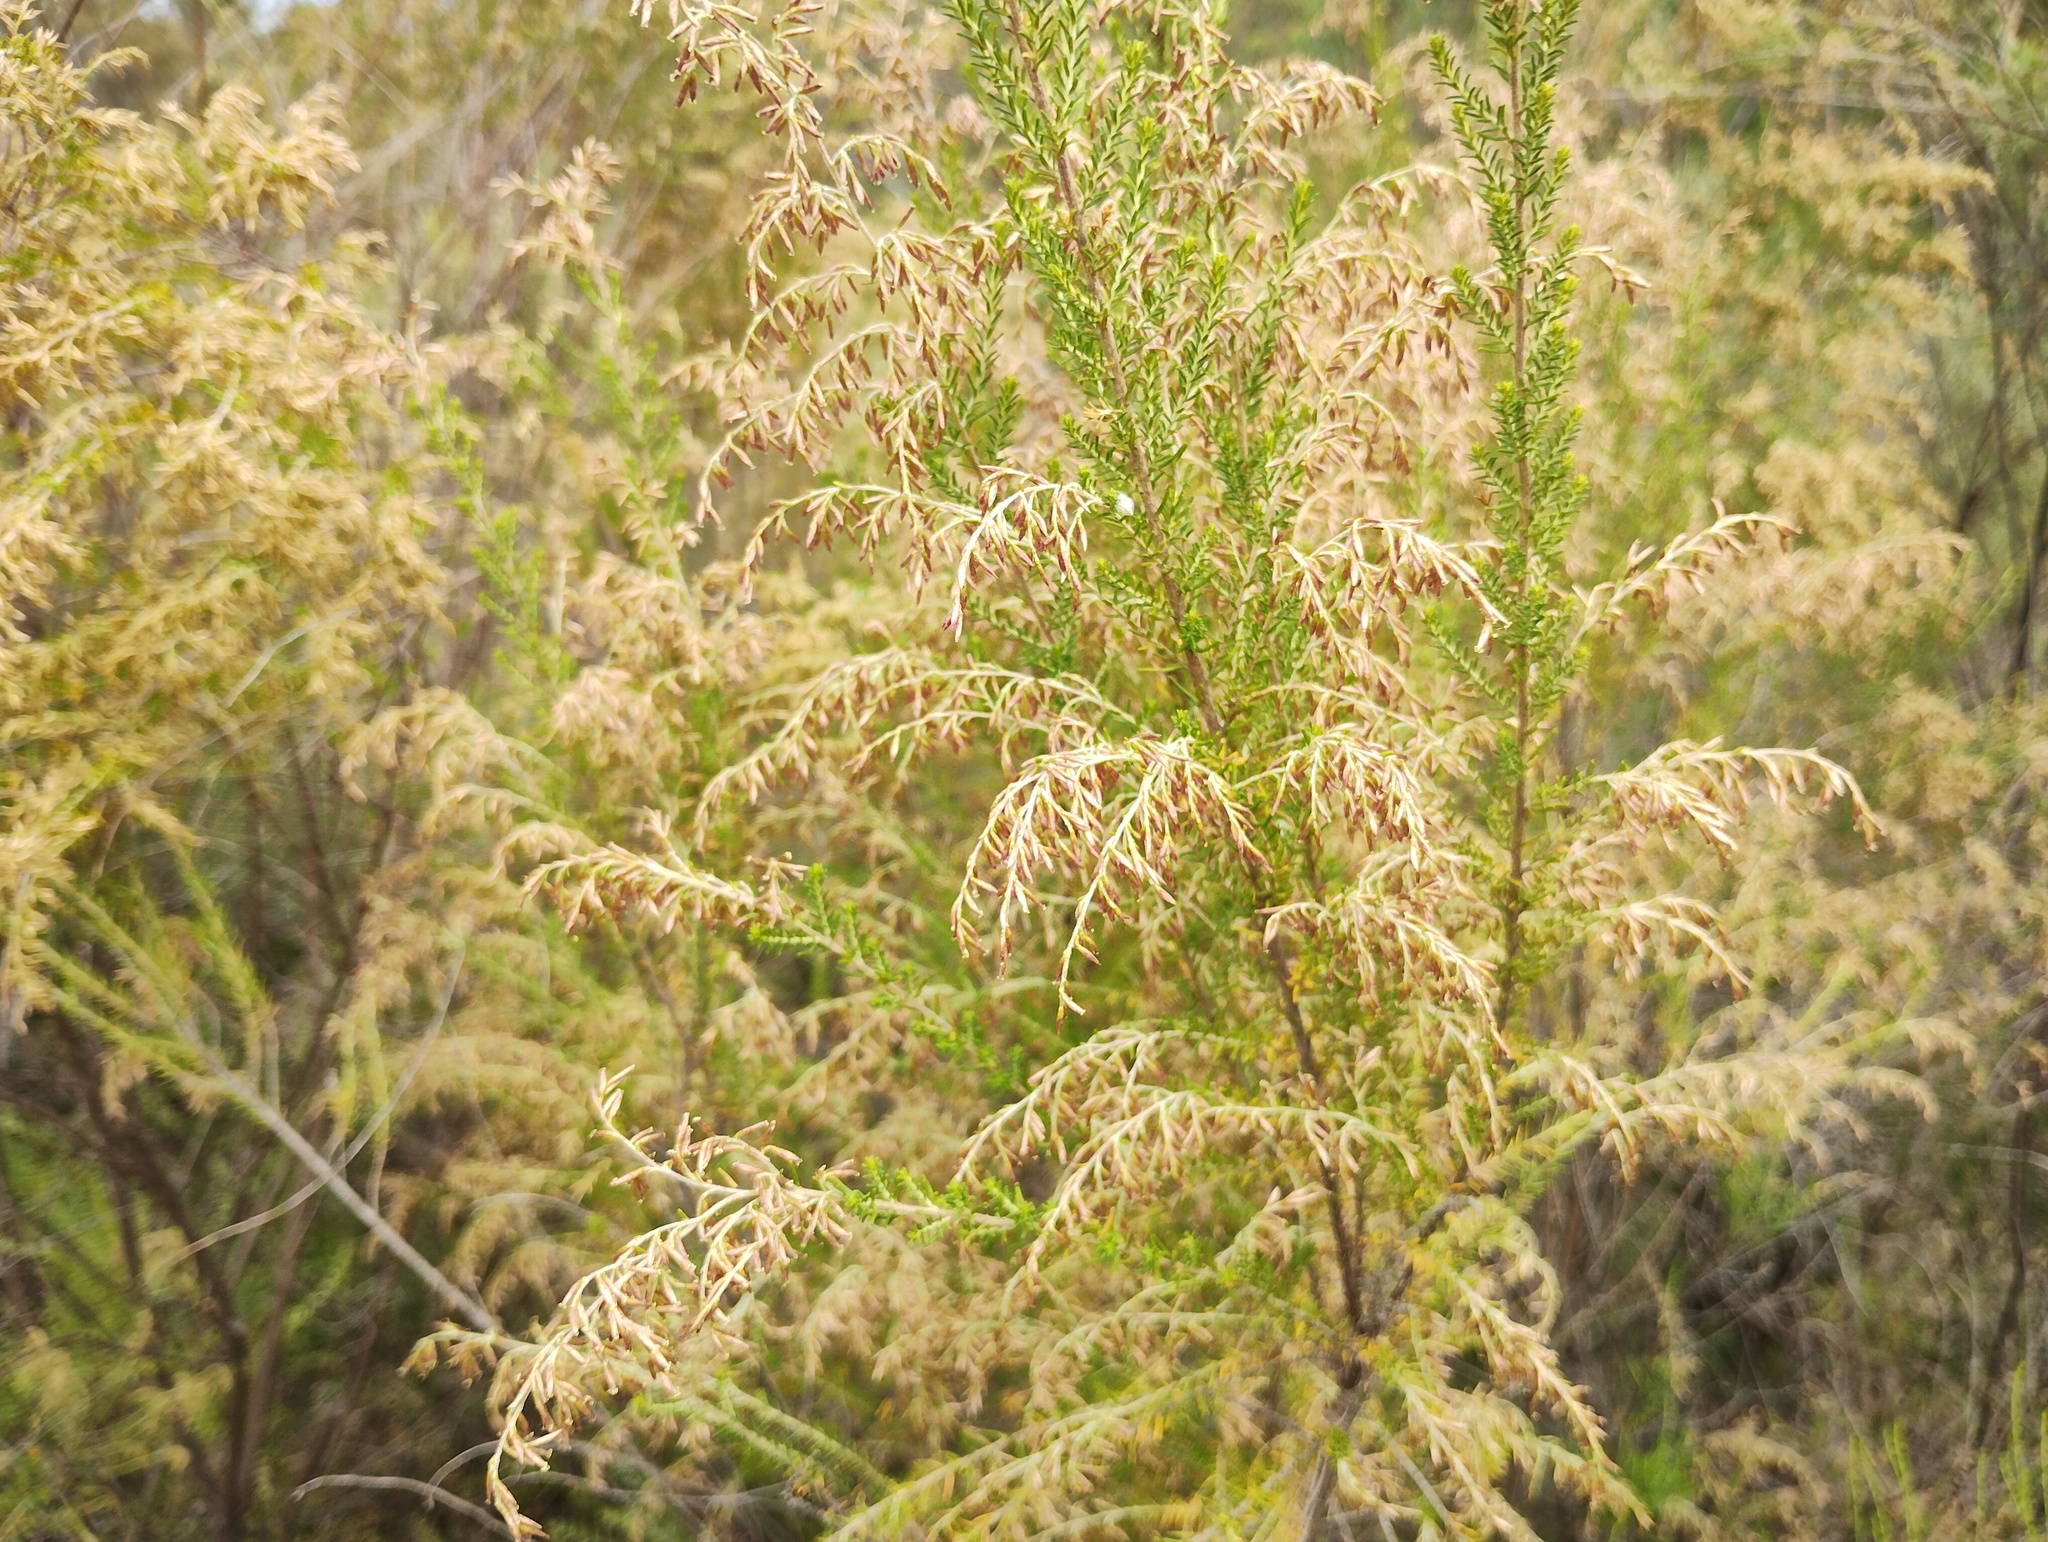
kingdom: Plantae
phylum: Tracheophyta
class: Magnoliopsida
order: Asterales
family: Asteraceae
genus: Cassinia
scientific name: Cassinia sifton
